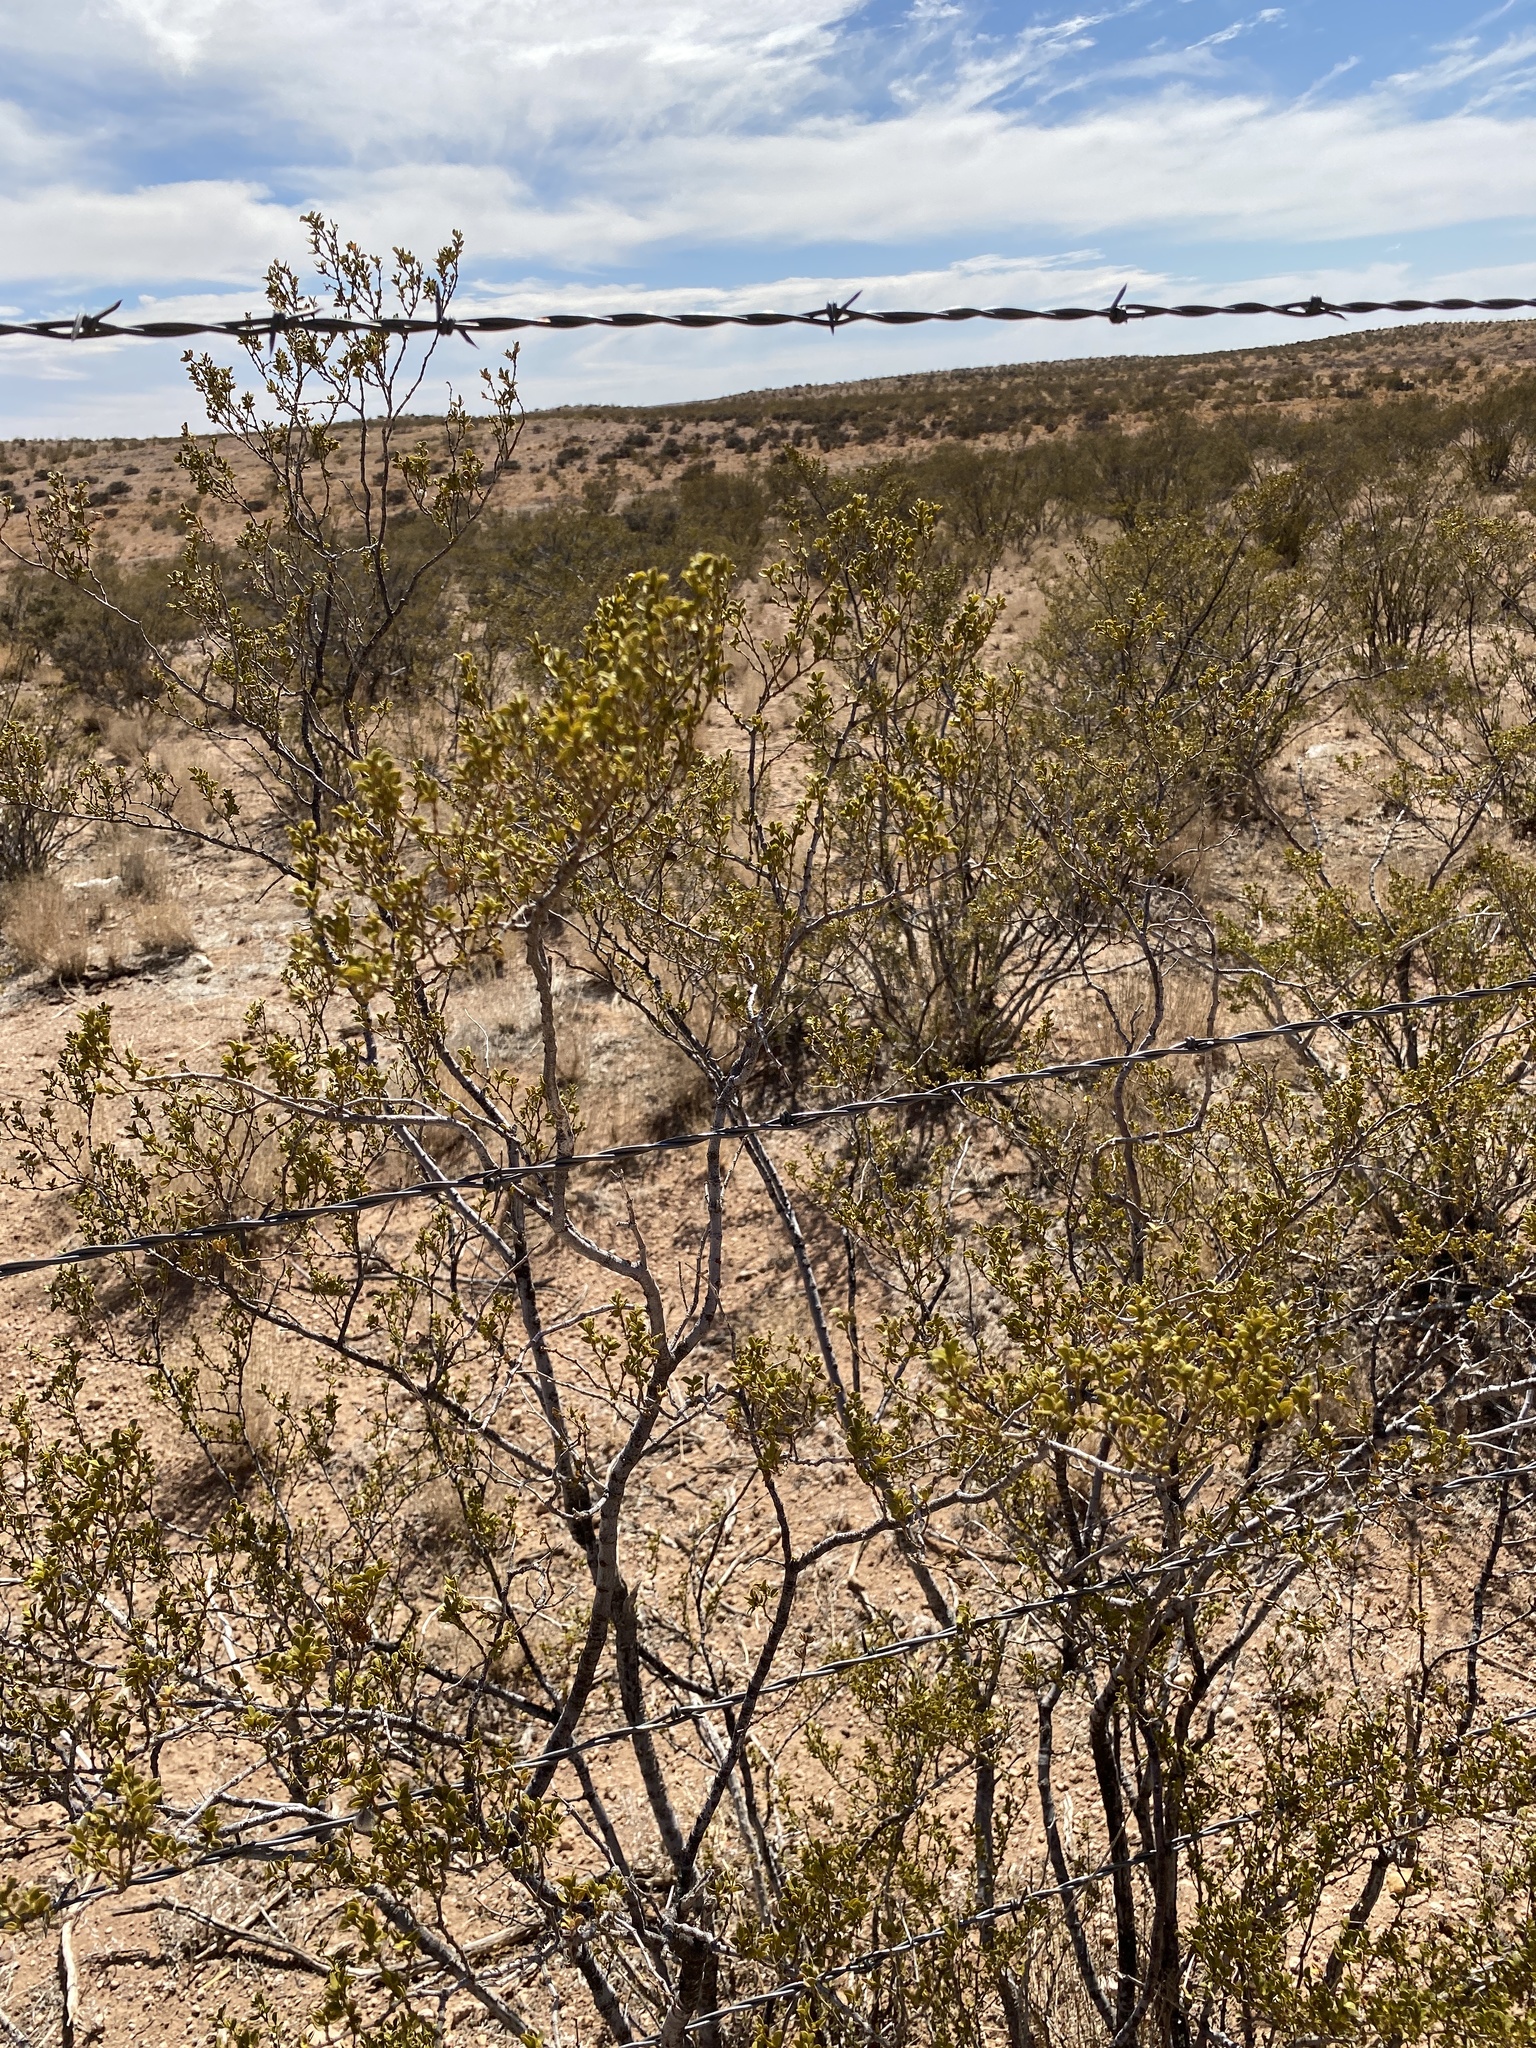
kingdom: Plantae
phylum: Tracheophyta
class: Magnoliopsida
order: Zygophyllales
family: Zygophyllaceae
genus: Larrea
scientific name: Larrea tridentata
